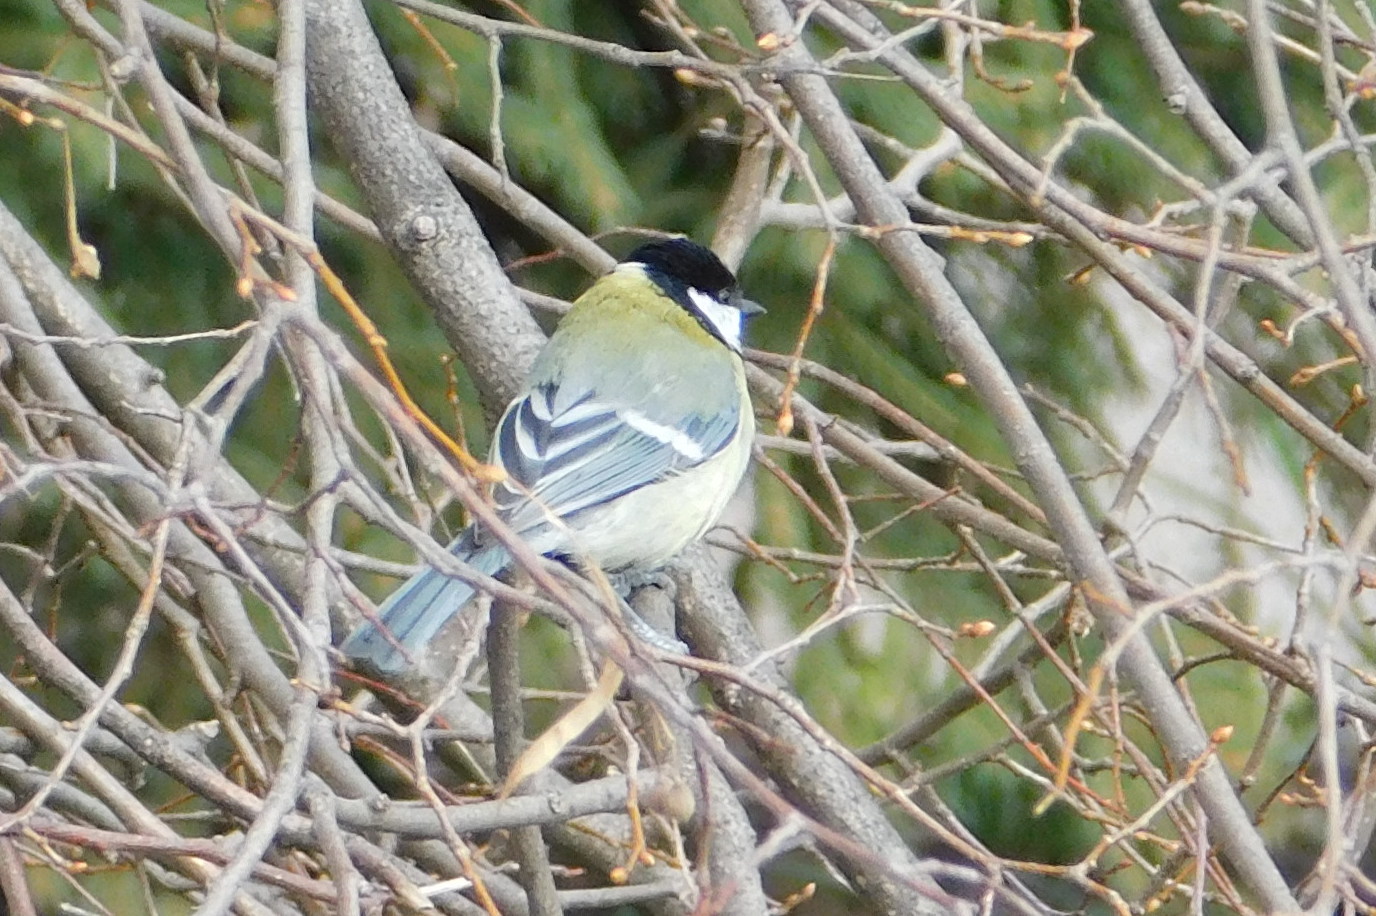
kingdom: Animalia
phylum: Chordata
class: Aves
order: Passeriformes
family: Paridae
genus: Parus
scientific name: Parus major
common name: Great tit
